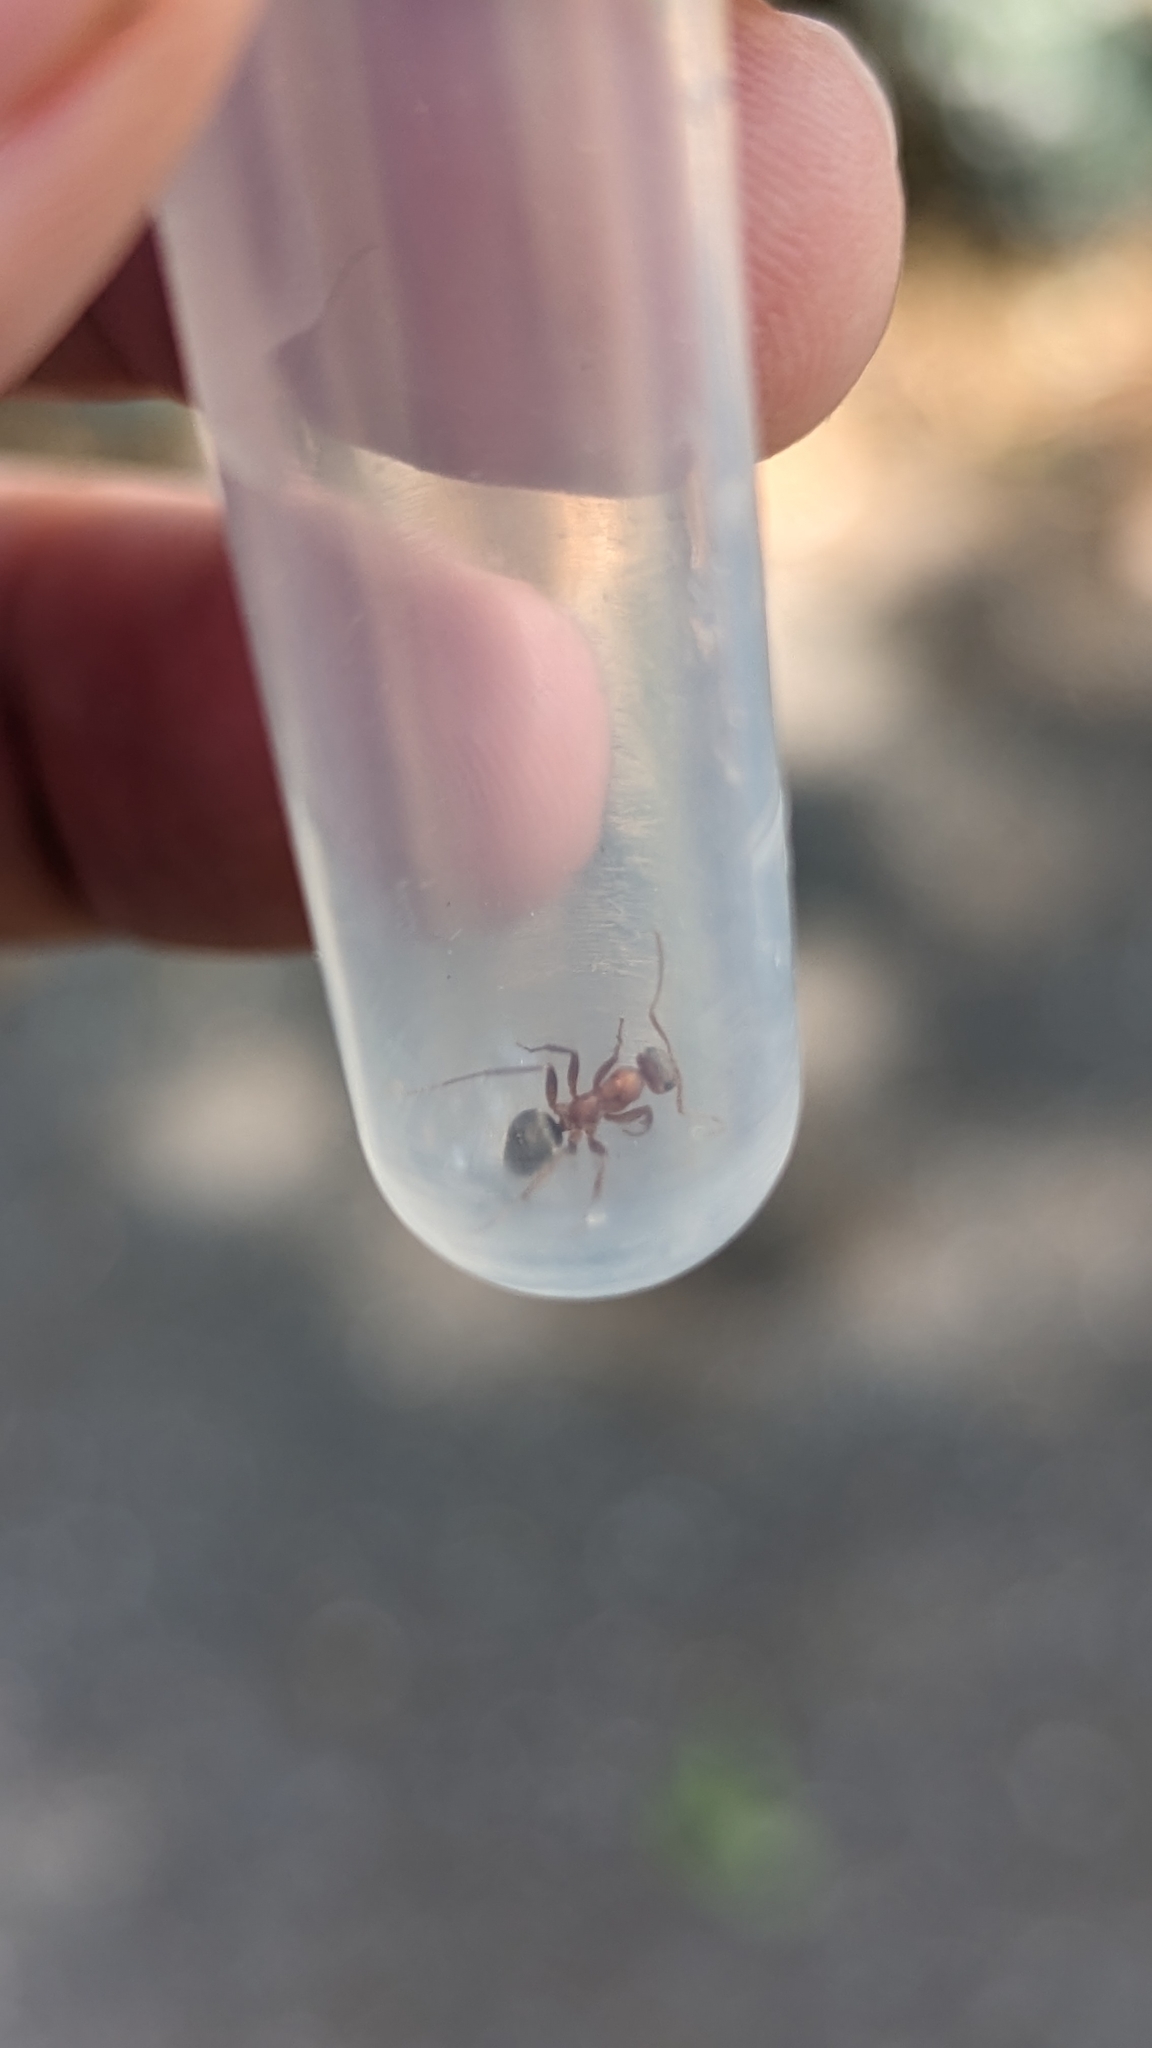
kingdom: Animalia
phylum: Arthropoda
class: Insecta
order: Hymenoptera
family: Formicidae
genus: Formica
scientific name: Formica moki
